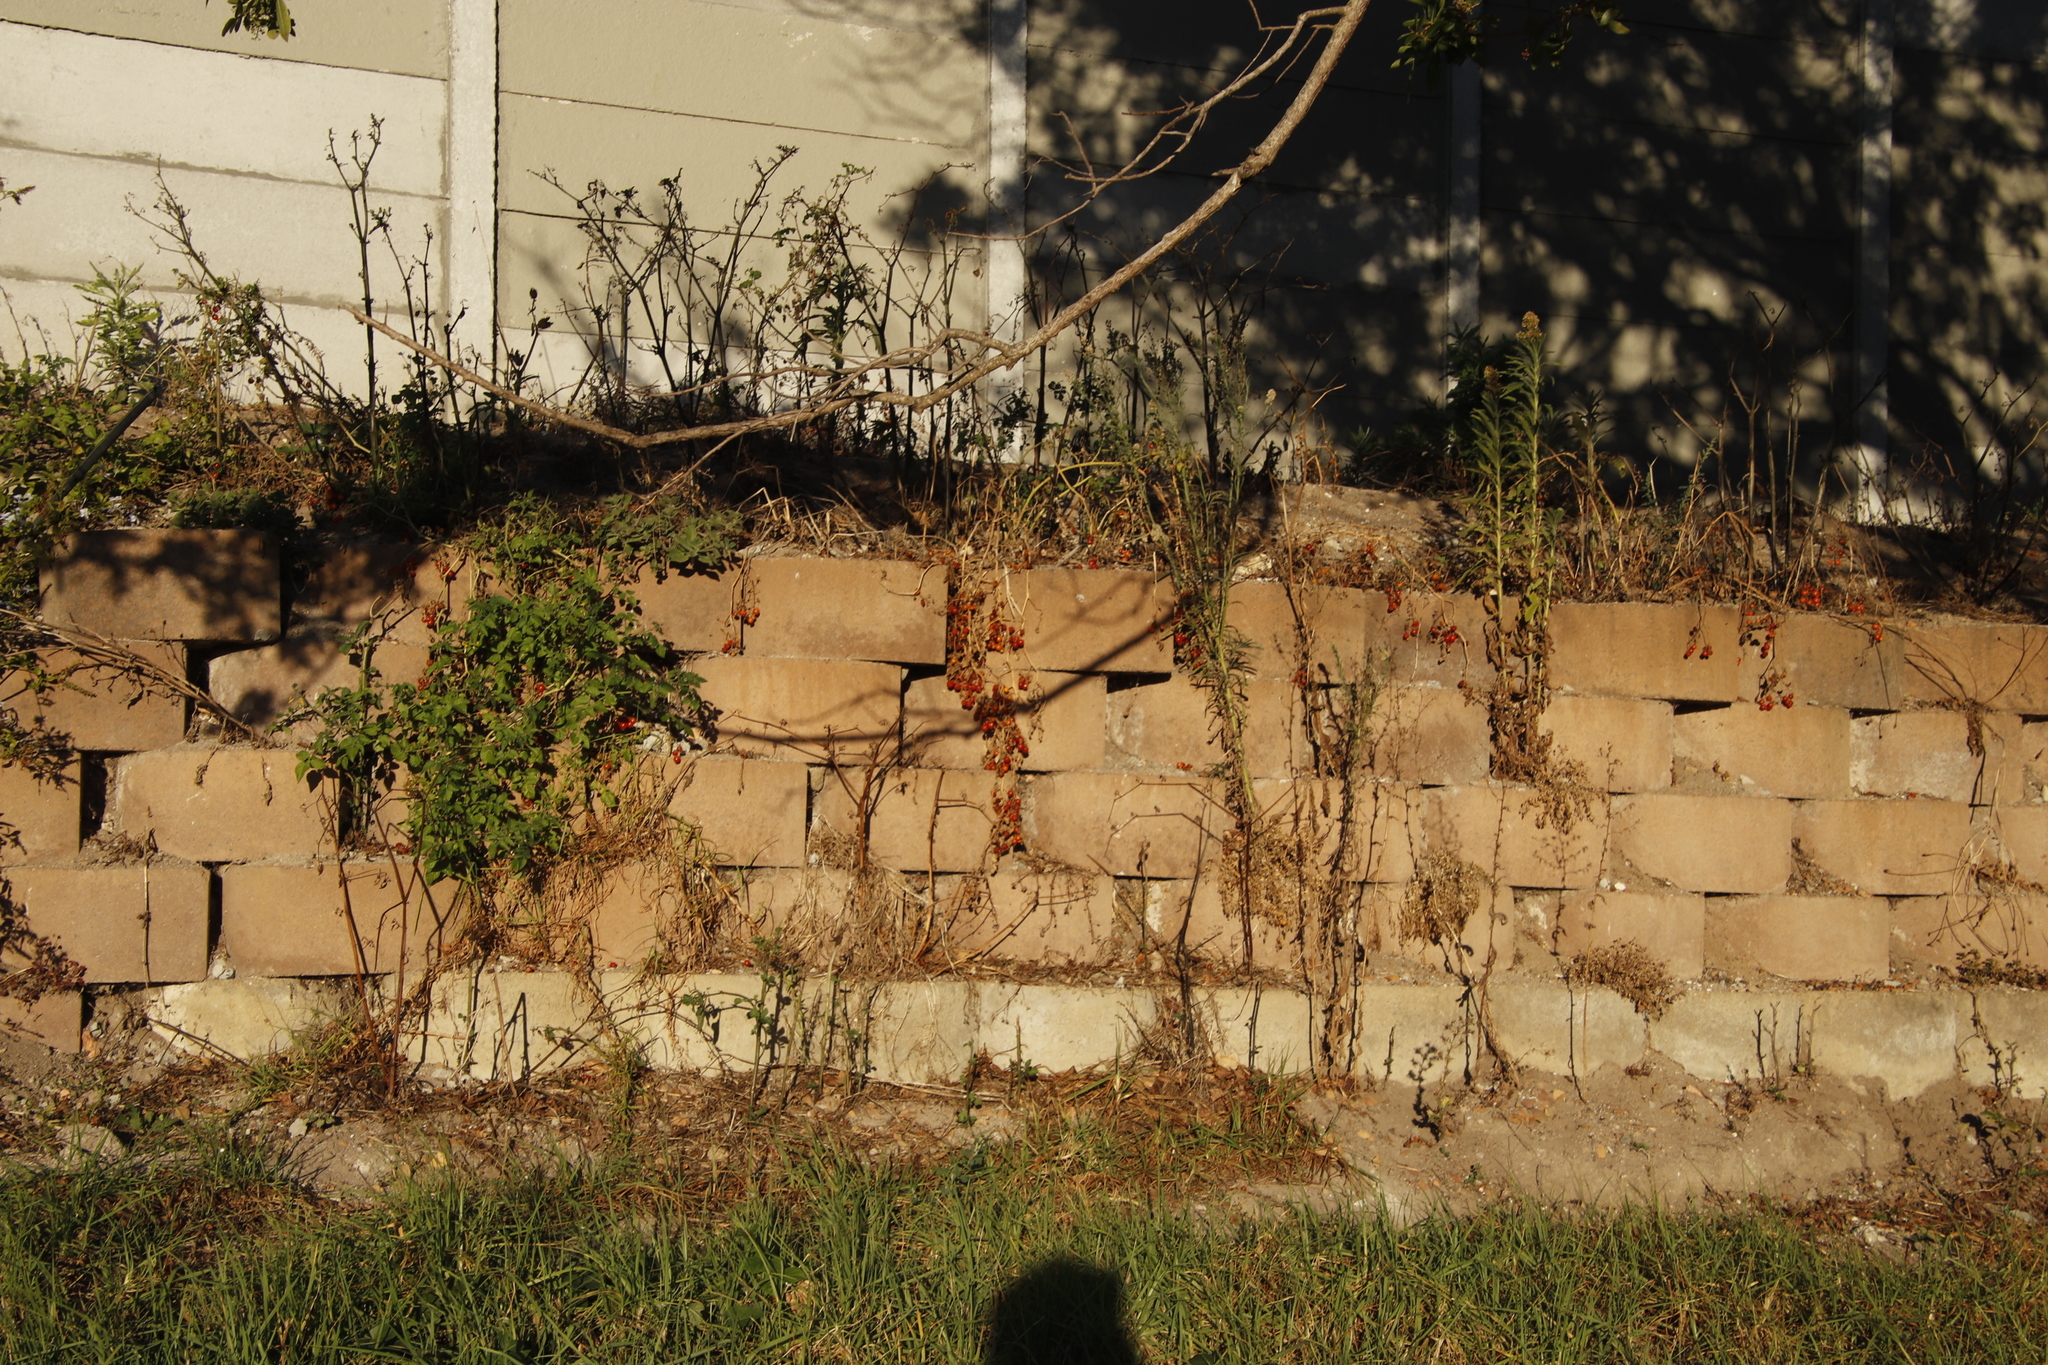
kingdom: Plantae
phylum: Tracheophyta
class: Magnoliopsida
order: Solanales
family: Solanaceae
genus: Solanum
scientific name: Solanum lycopersicum
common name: Garden tomato
